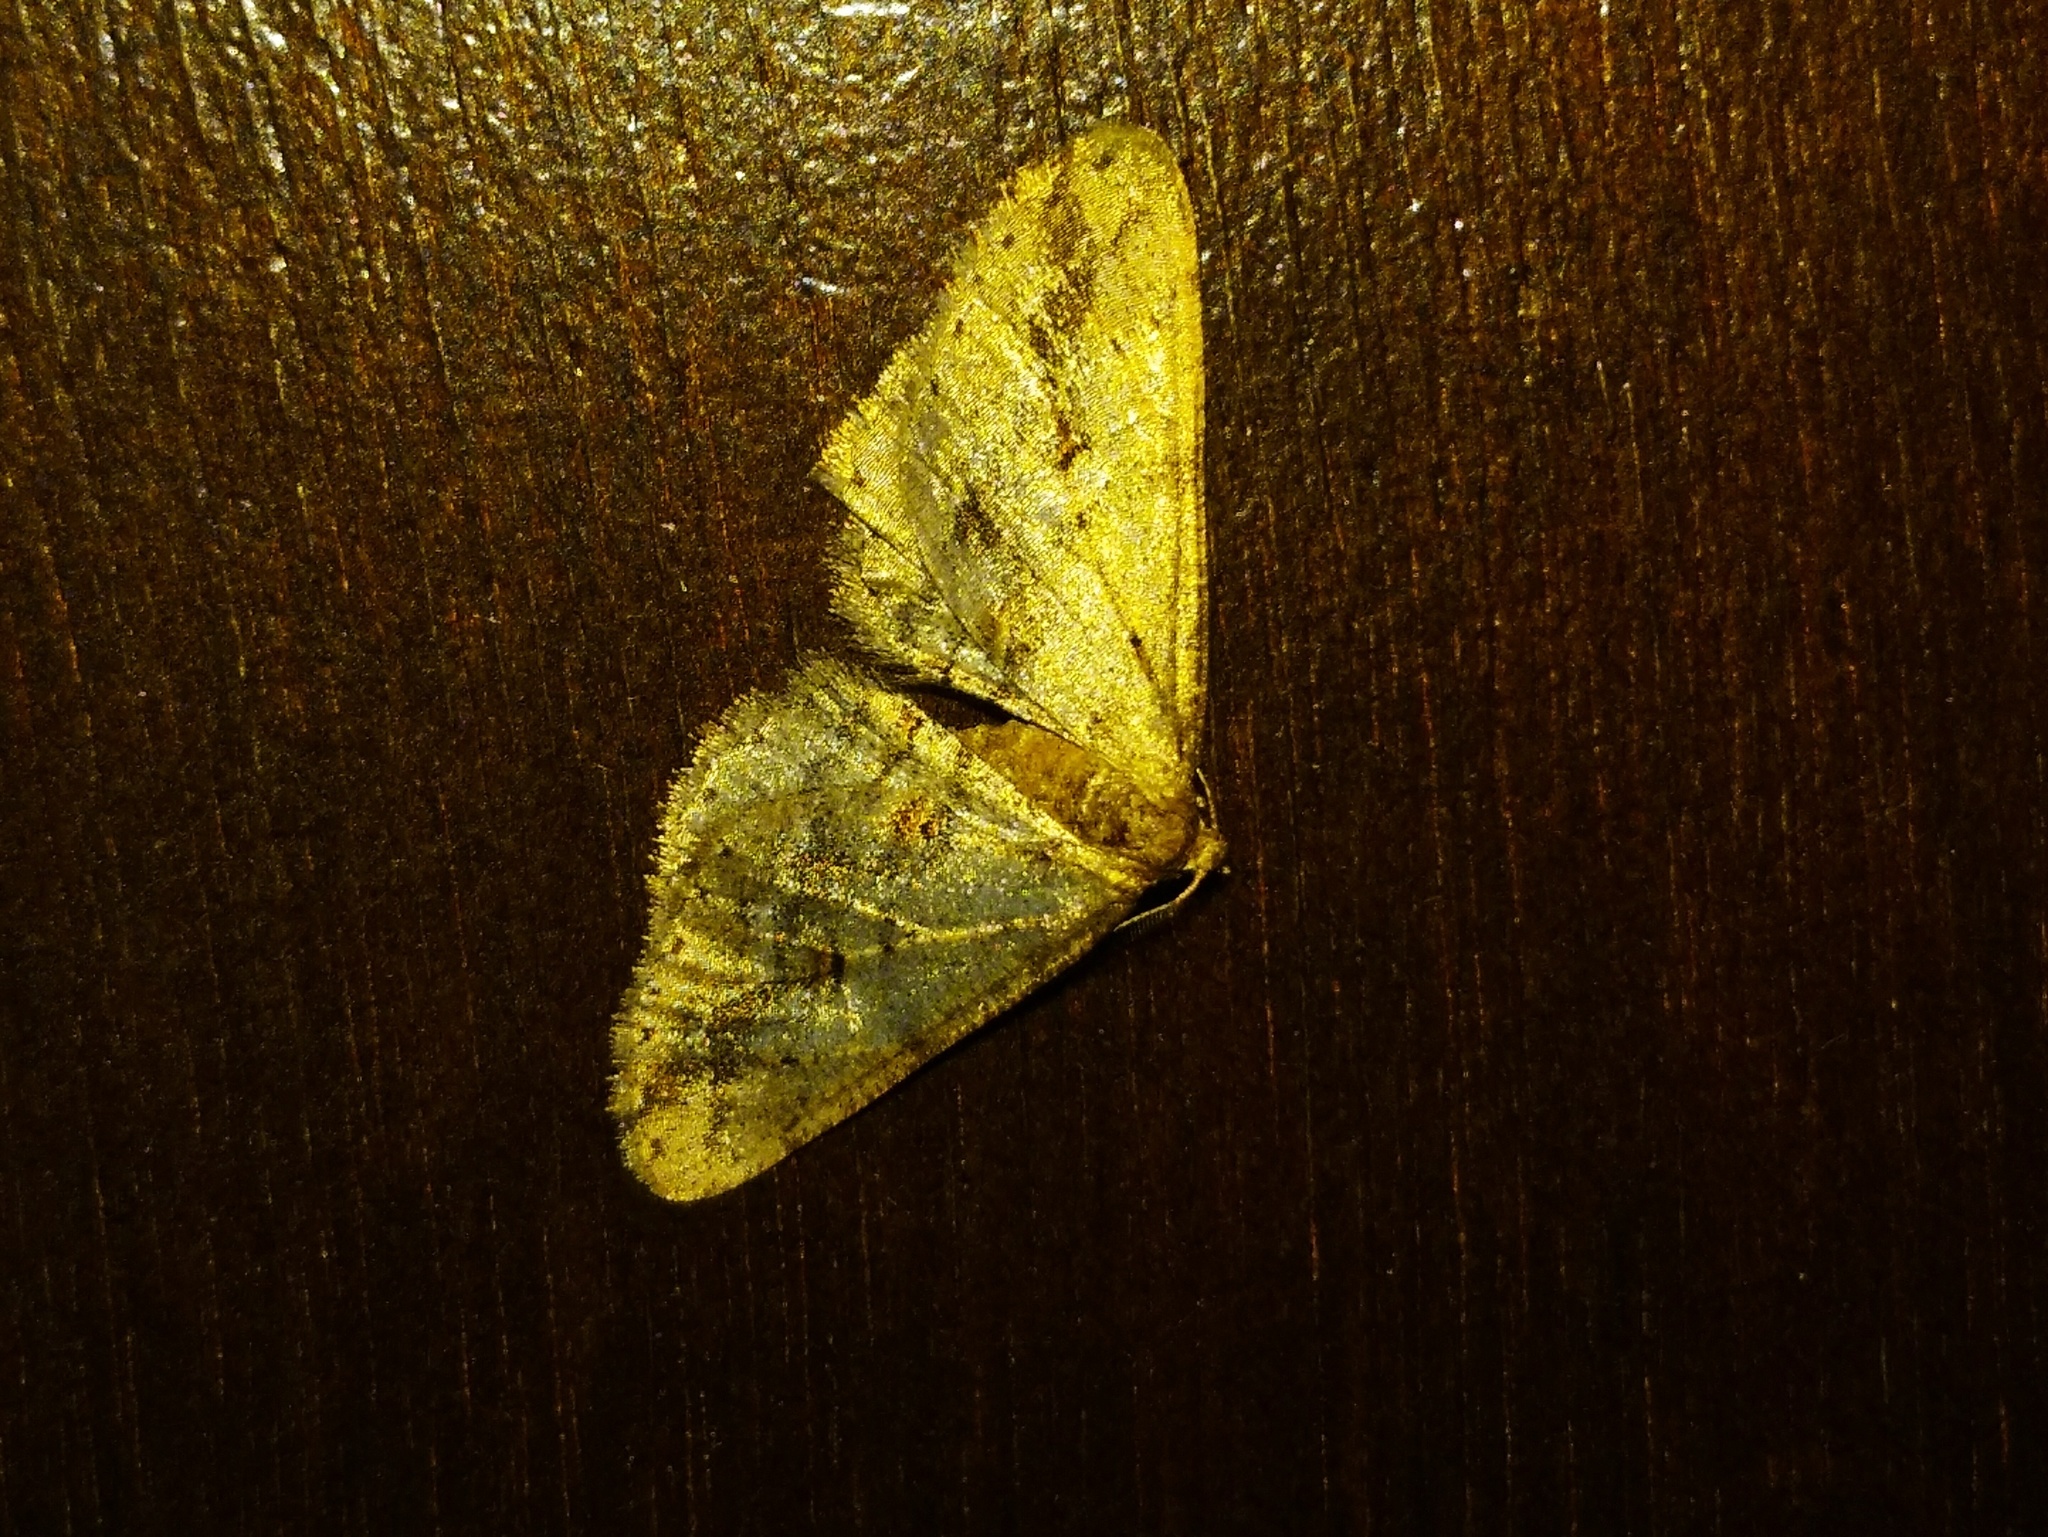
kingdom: Animalia
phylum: Arthropoda
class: Insecta
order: Lepidoptera
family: Geometridae
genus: Agriopis
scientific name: Agriopis bajaria
